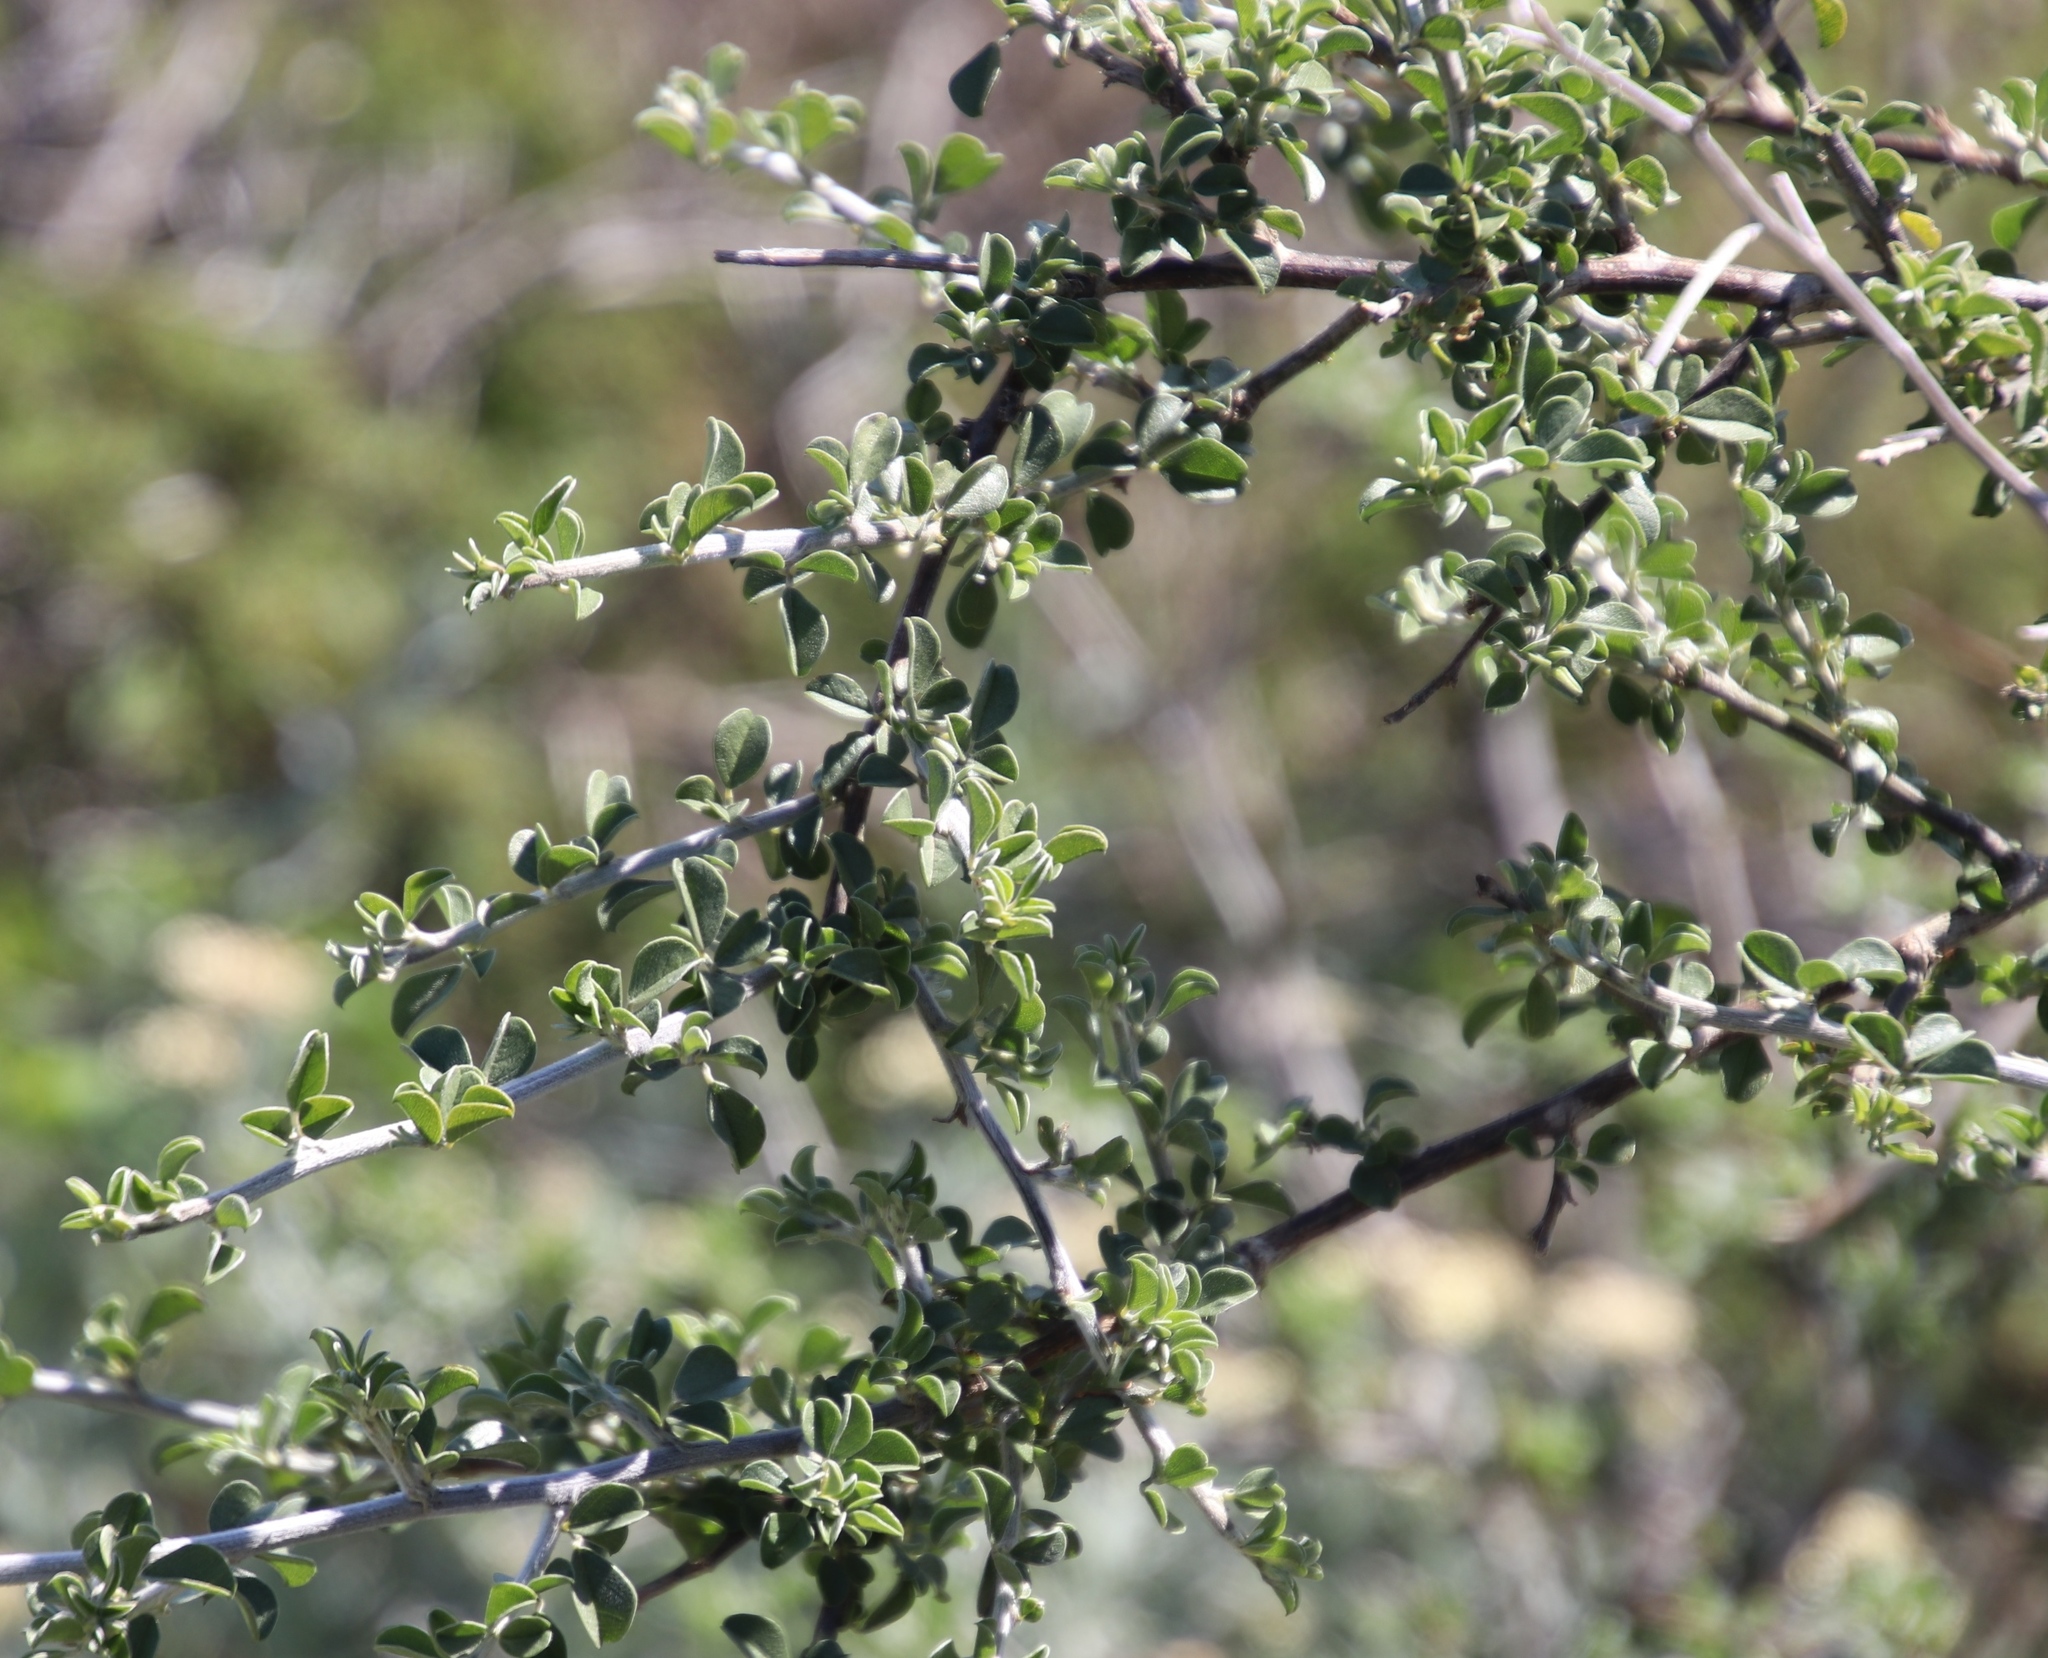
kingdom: Plantae
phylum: Tracheophyta
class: Magnoliopsida
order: Fabales
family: Fabaceae
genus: Psoralea
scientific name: Psoralea hirta
